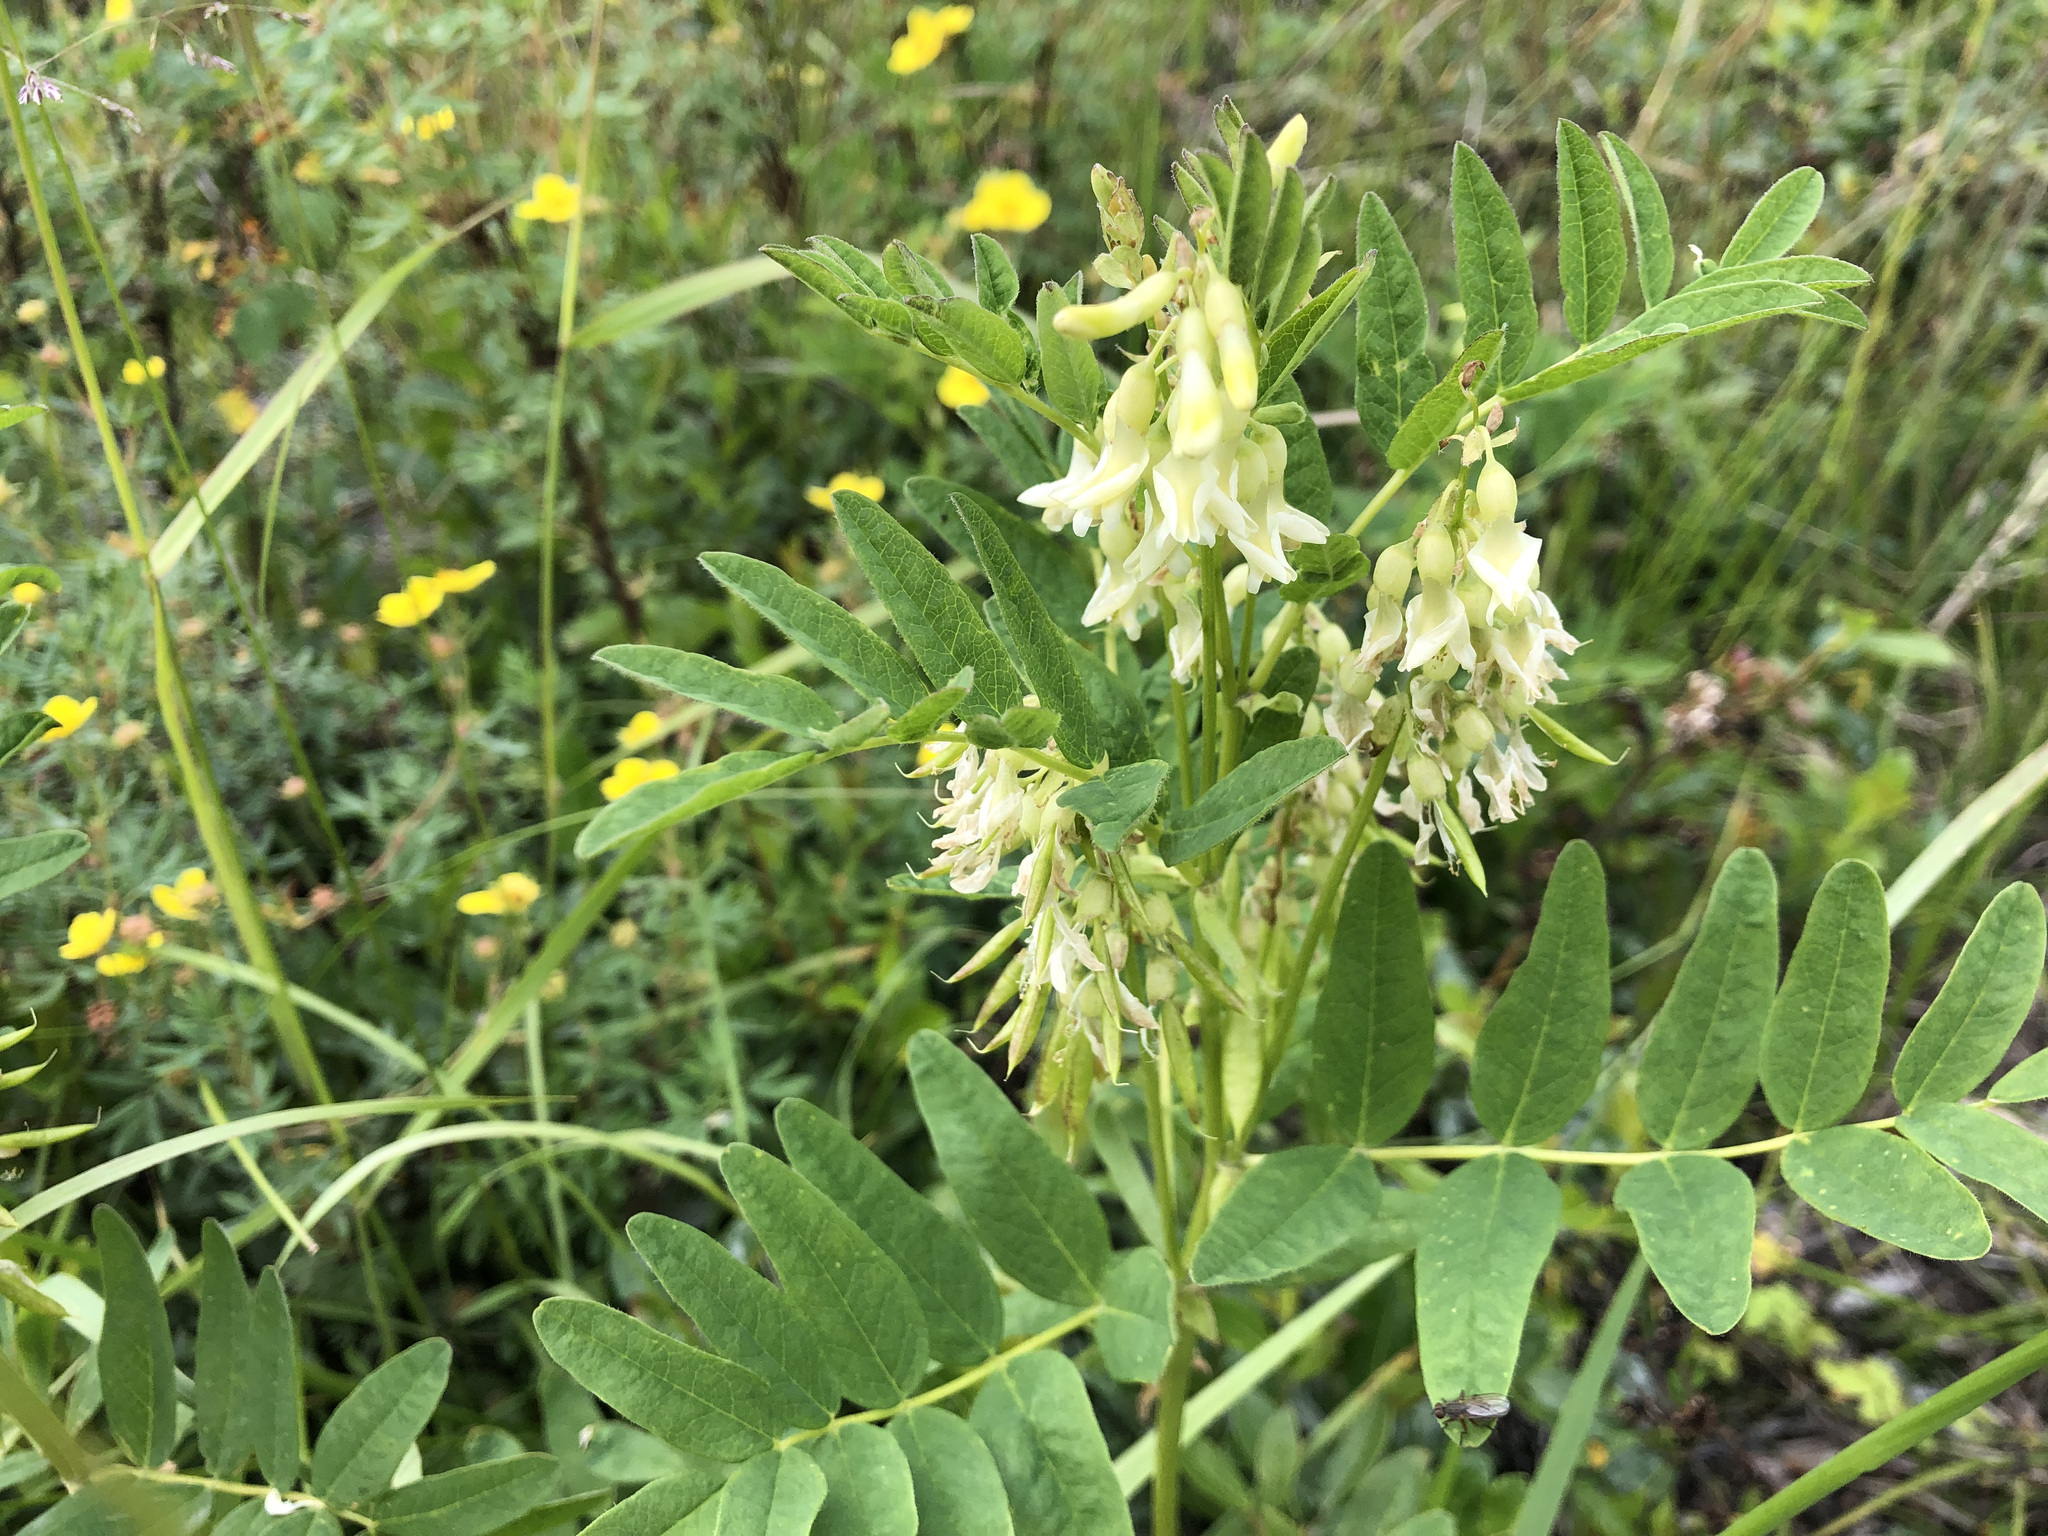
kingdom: Plantae
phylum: Tracheophyta
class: Magnoliopsida
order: Fabales
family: Fabaceae
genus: Astragalus
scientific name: Astragalus americanus
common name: American milk-vetch
